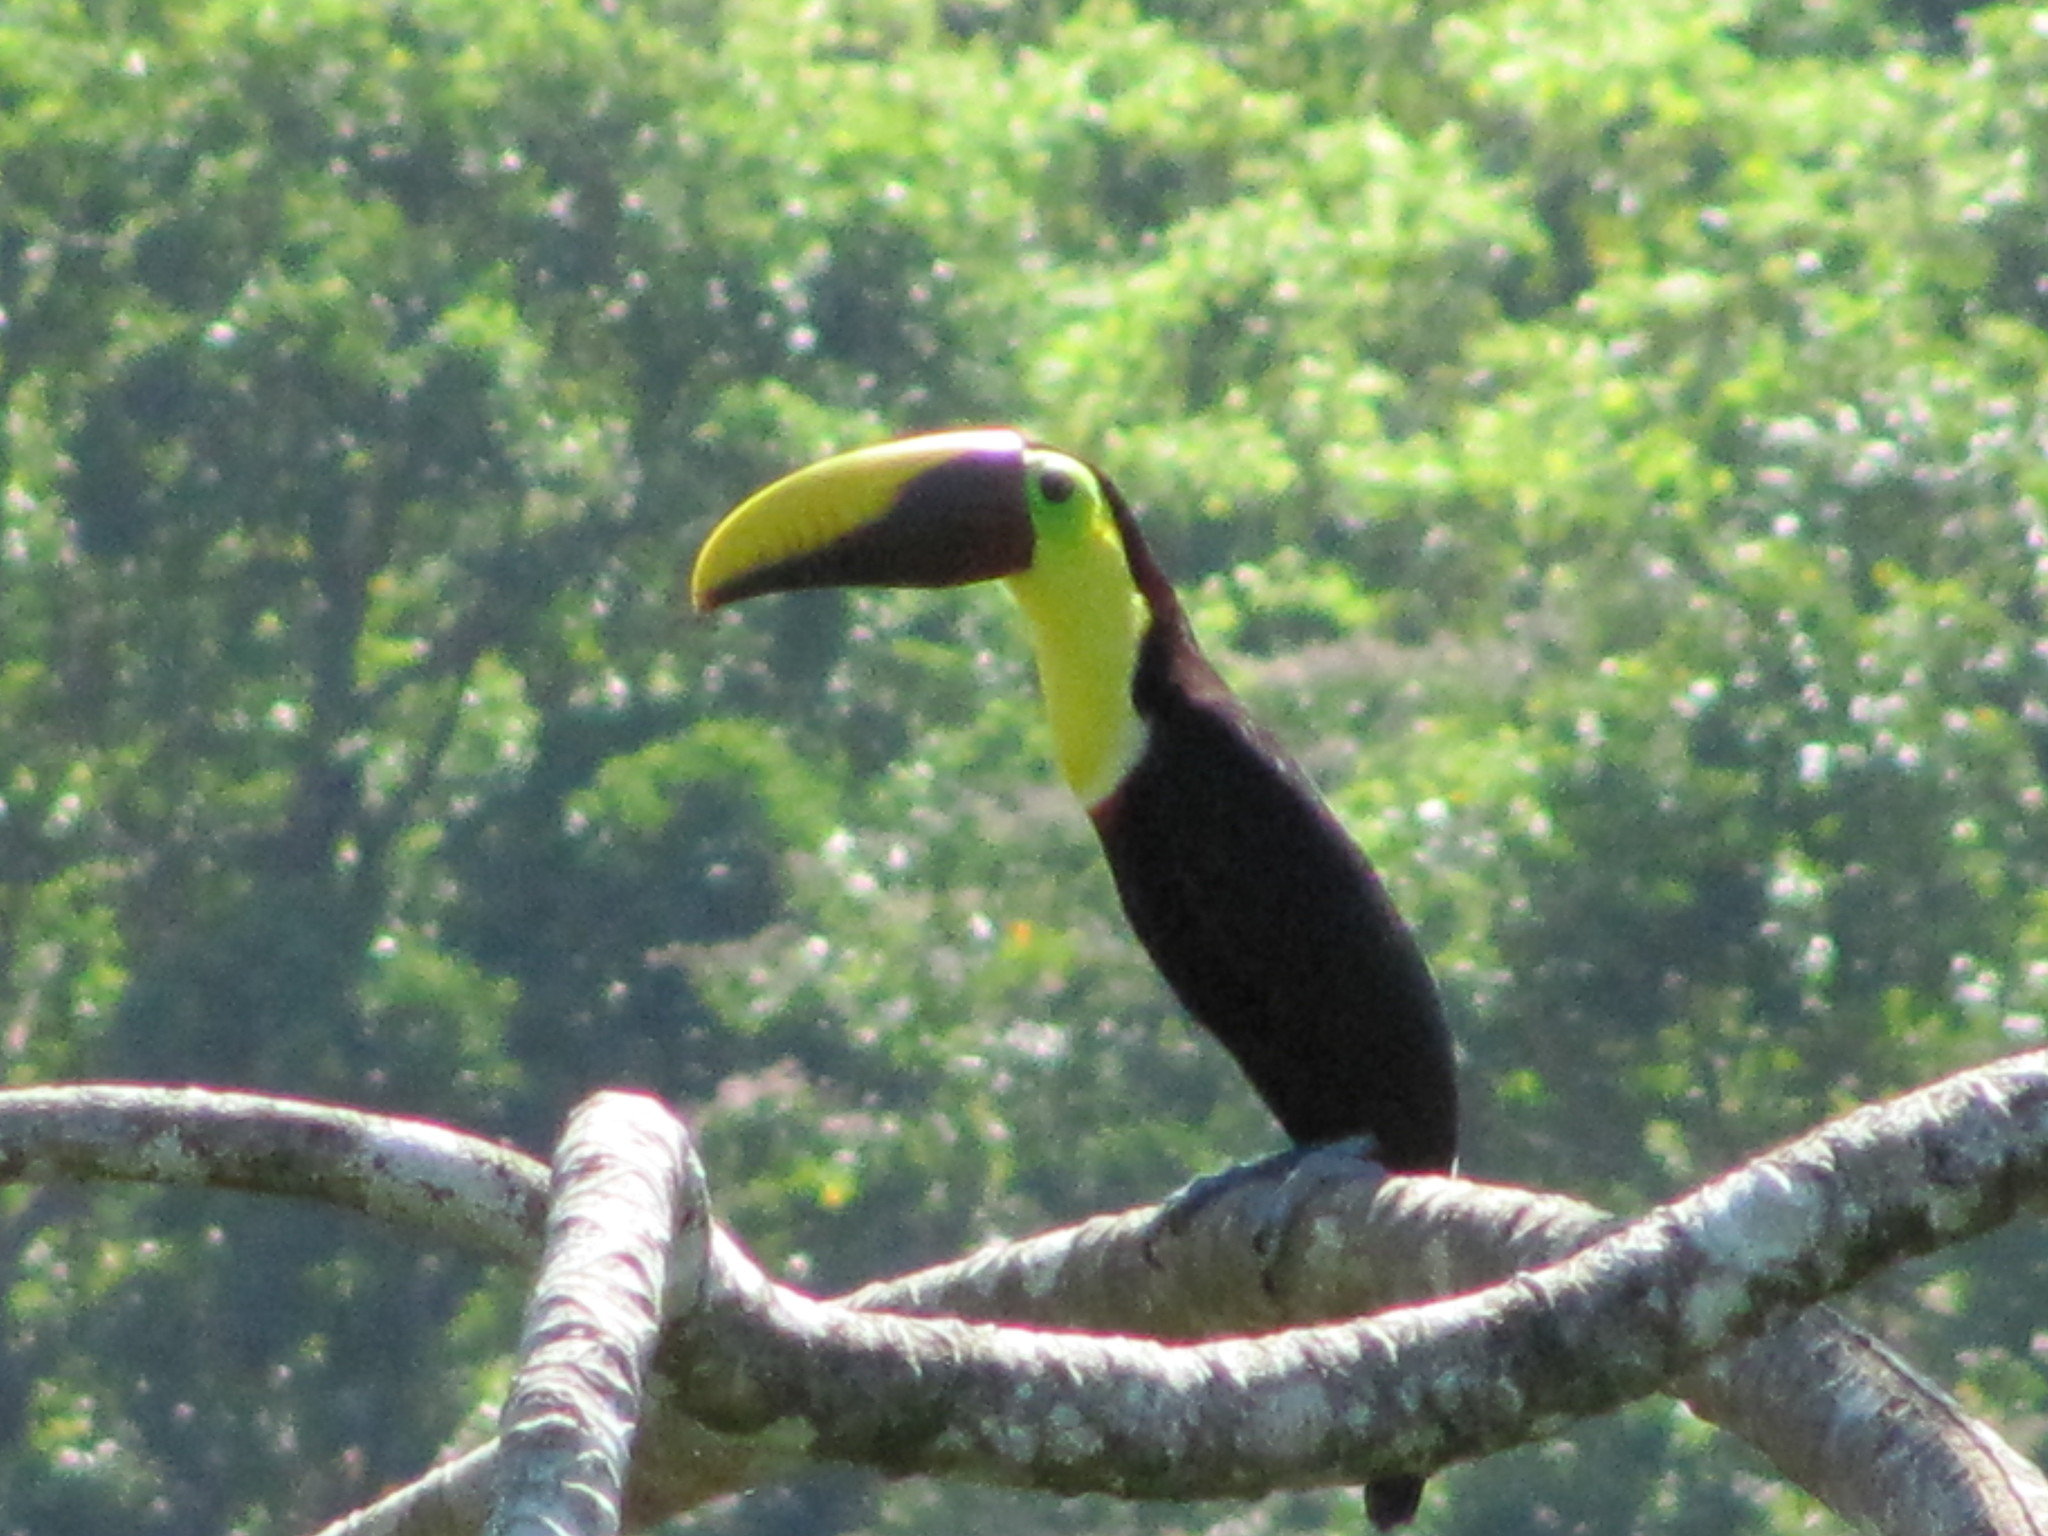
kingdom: Animalia
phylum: Chordata
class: Aves
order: Piciformes
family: Ramphastidae
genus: Ramphastos
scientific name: Ramphastos ambiguus
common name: Yellow-throated toucan
